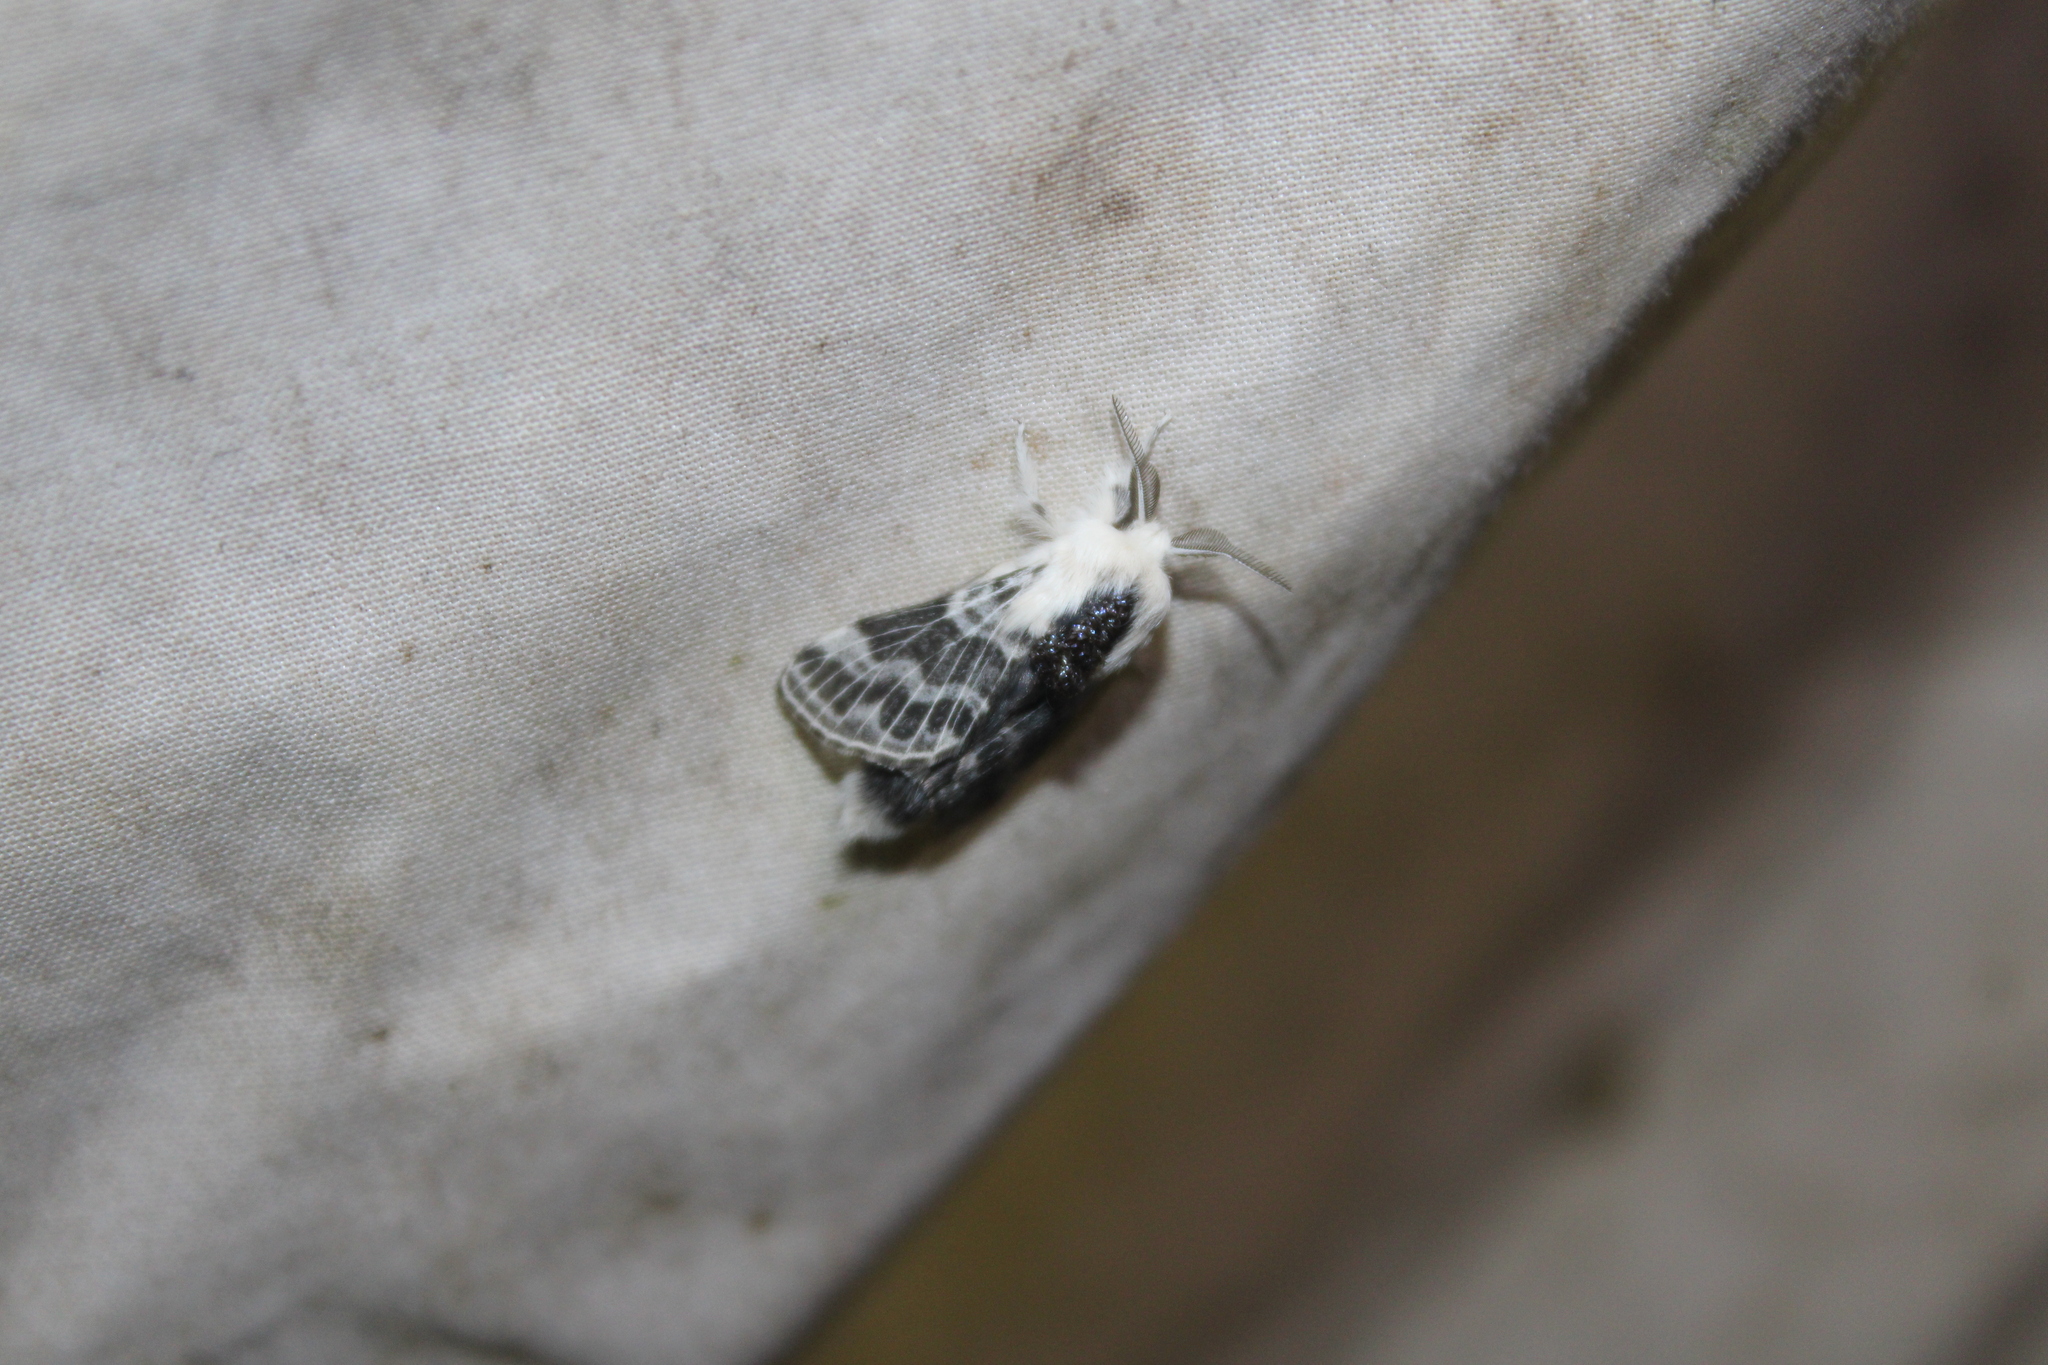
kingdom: Animalia
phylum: Arthropoda
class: Insecta
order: Lepidoptera
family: Lasiocampidae
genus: Tolype
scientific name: Tolype velleda
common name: Large tolype moth
